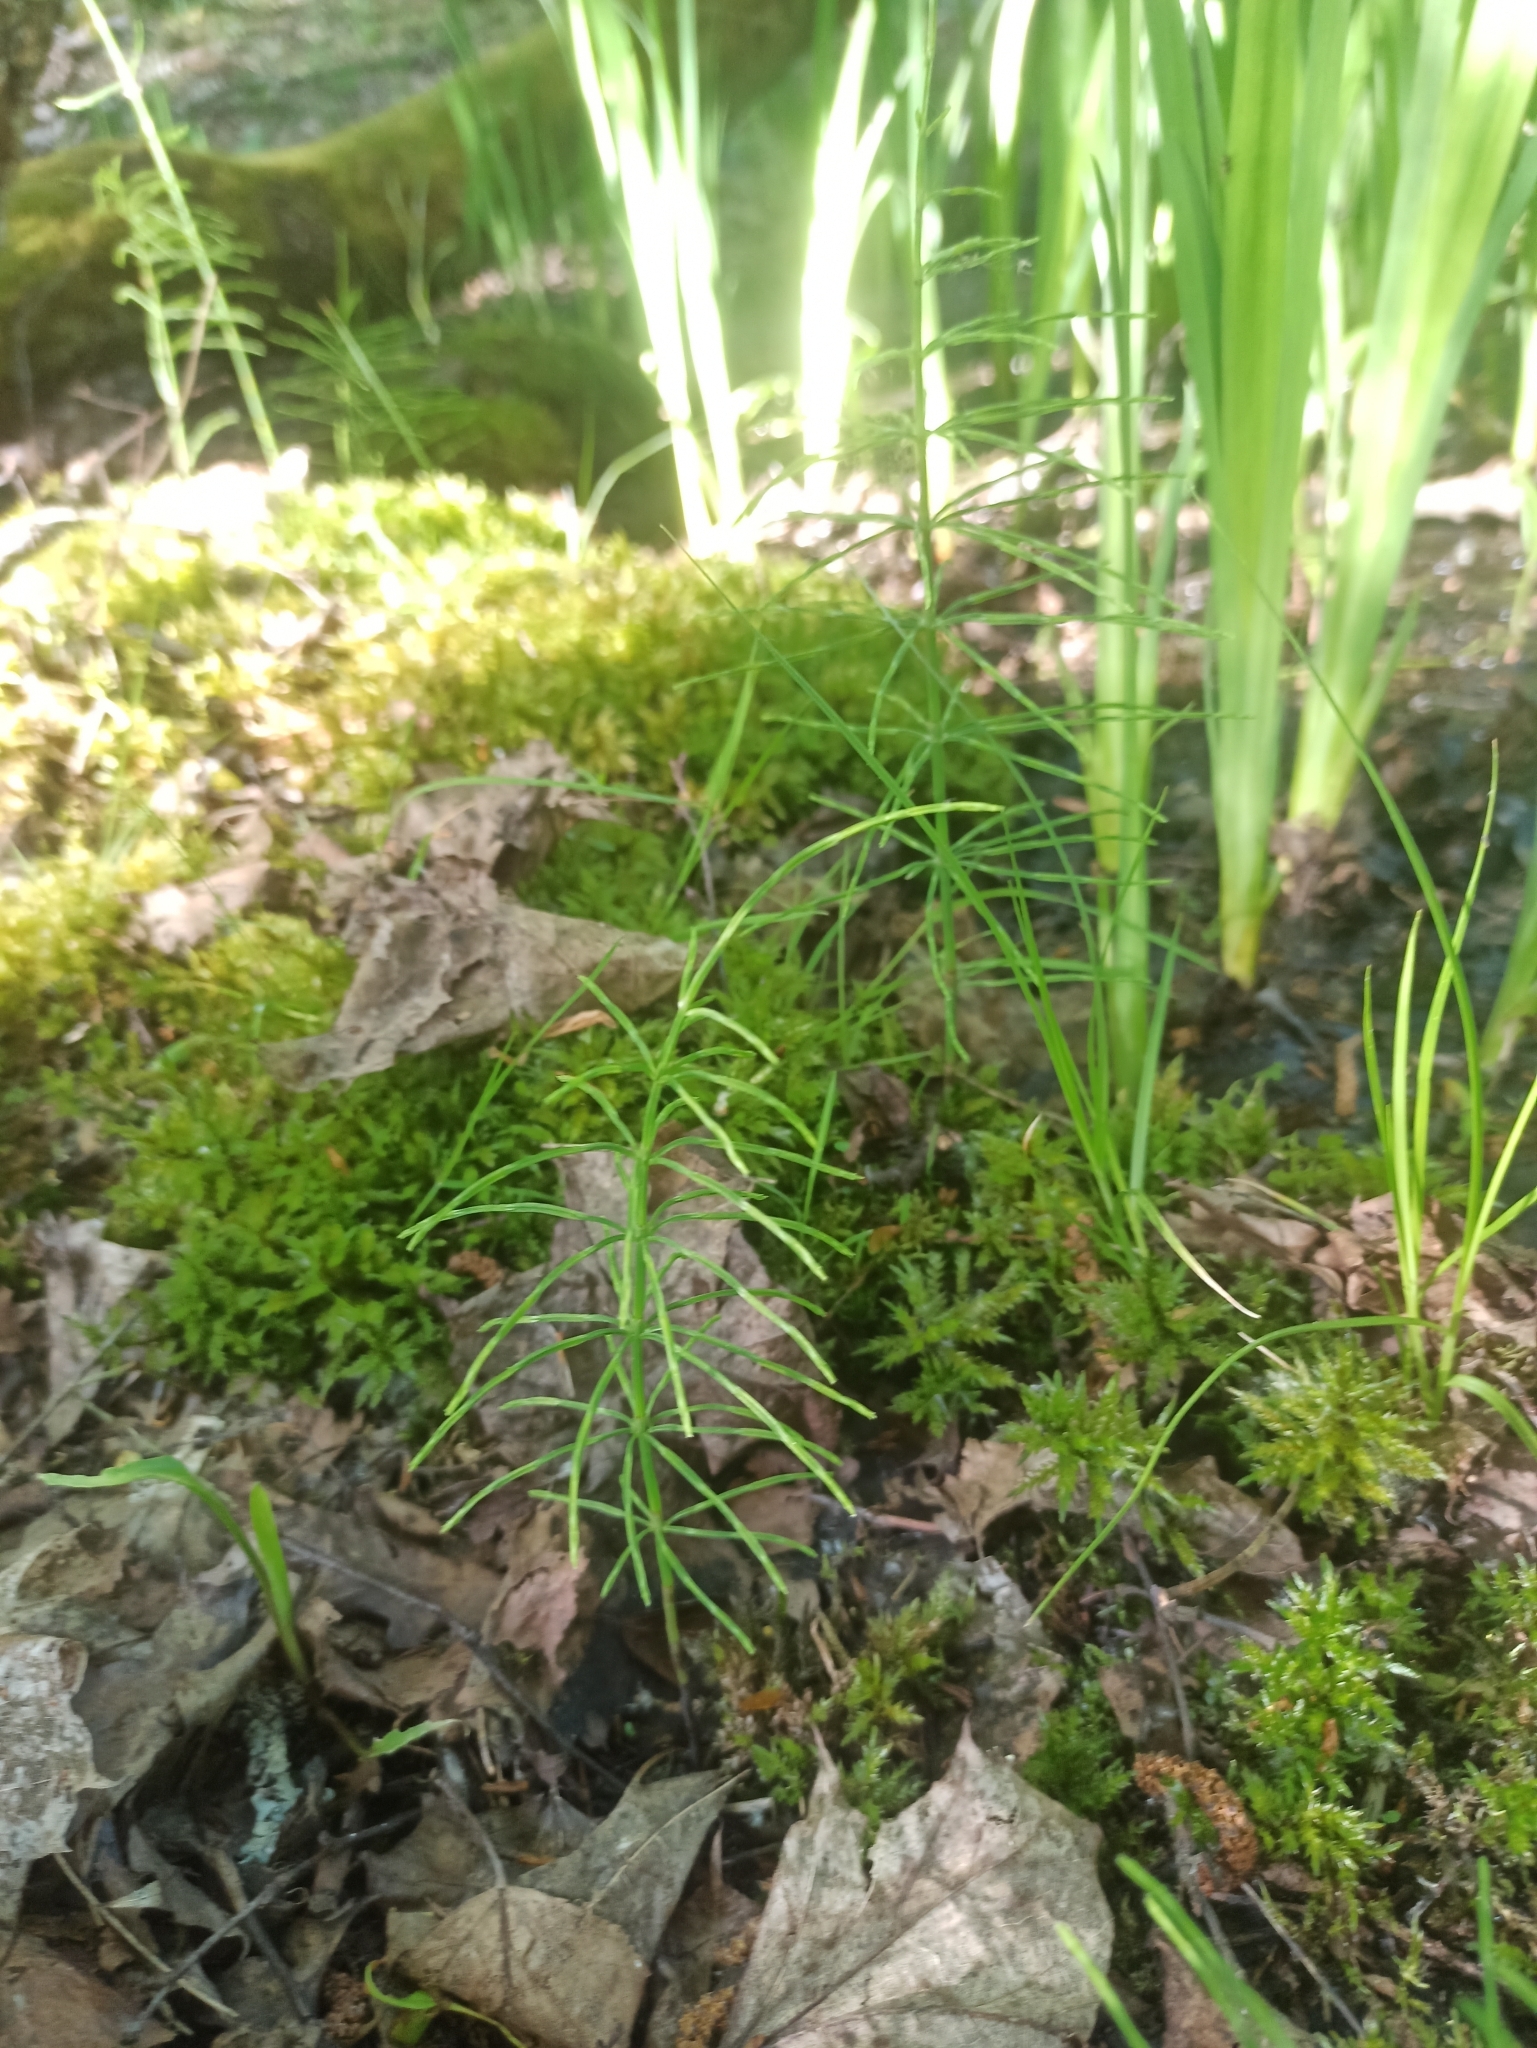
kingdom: Plantae
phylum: Tracheophyta
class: Polypodiopsida
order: Equisetales
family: Equisetaceae
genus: Equisetum
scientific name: Equisetum arvense
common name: Field horsetail
